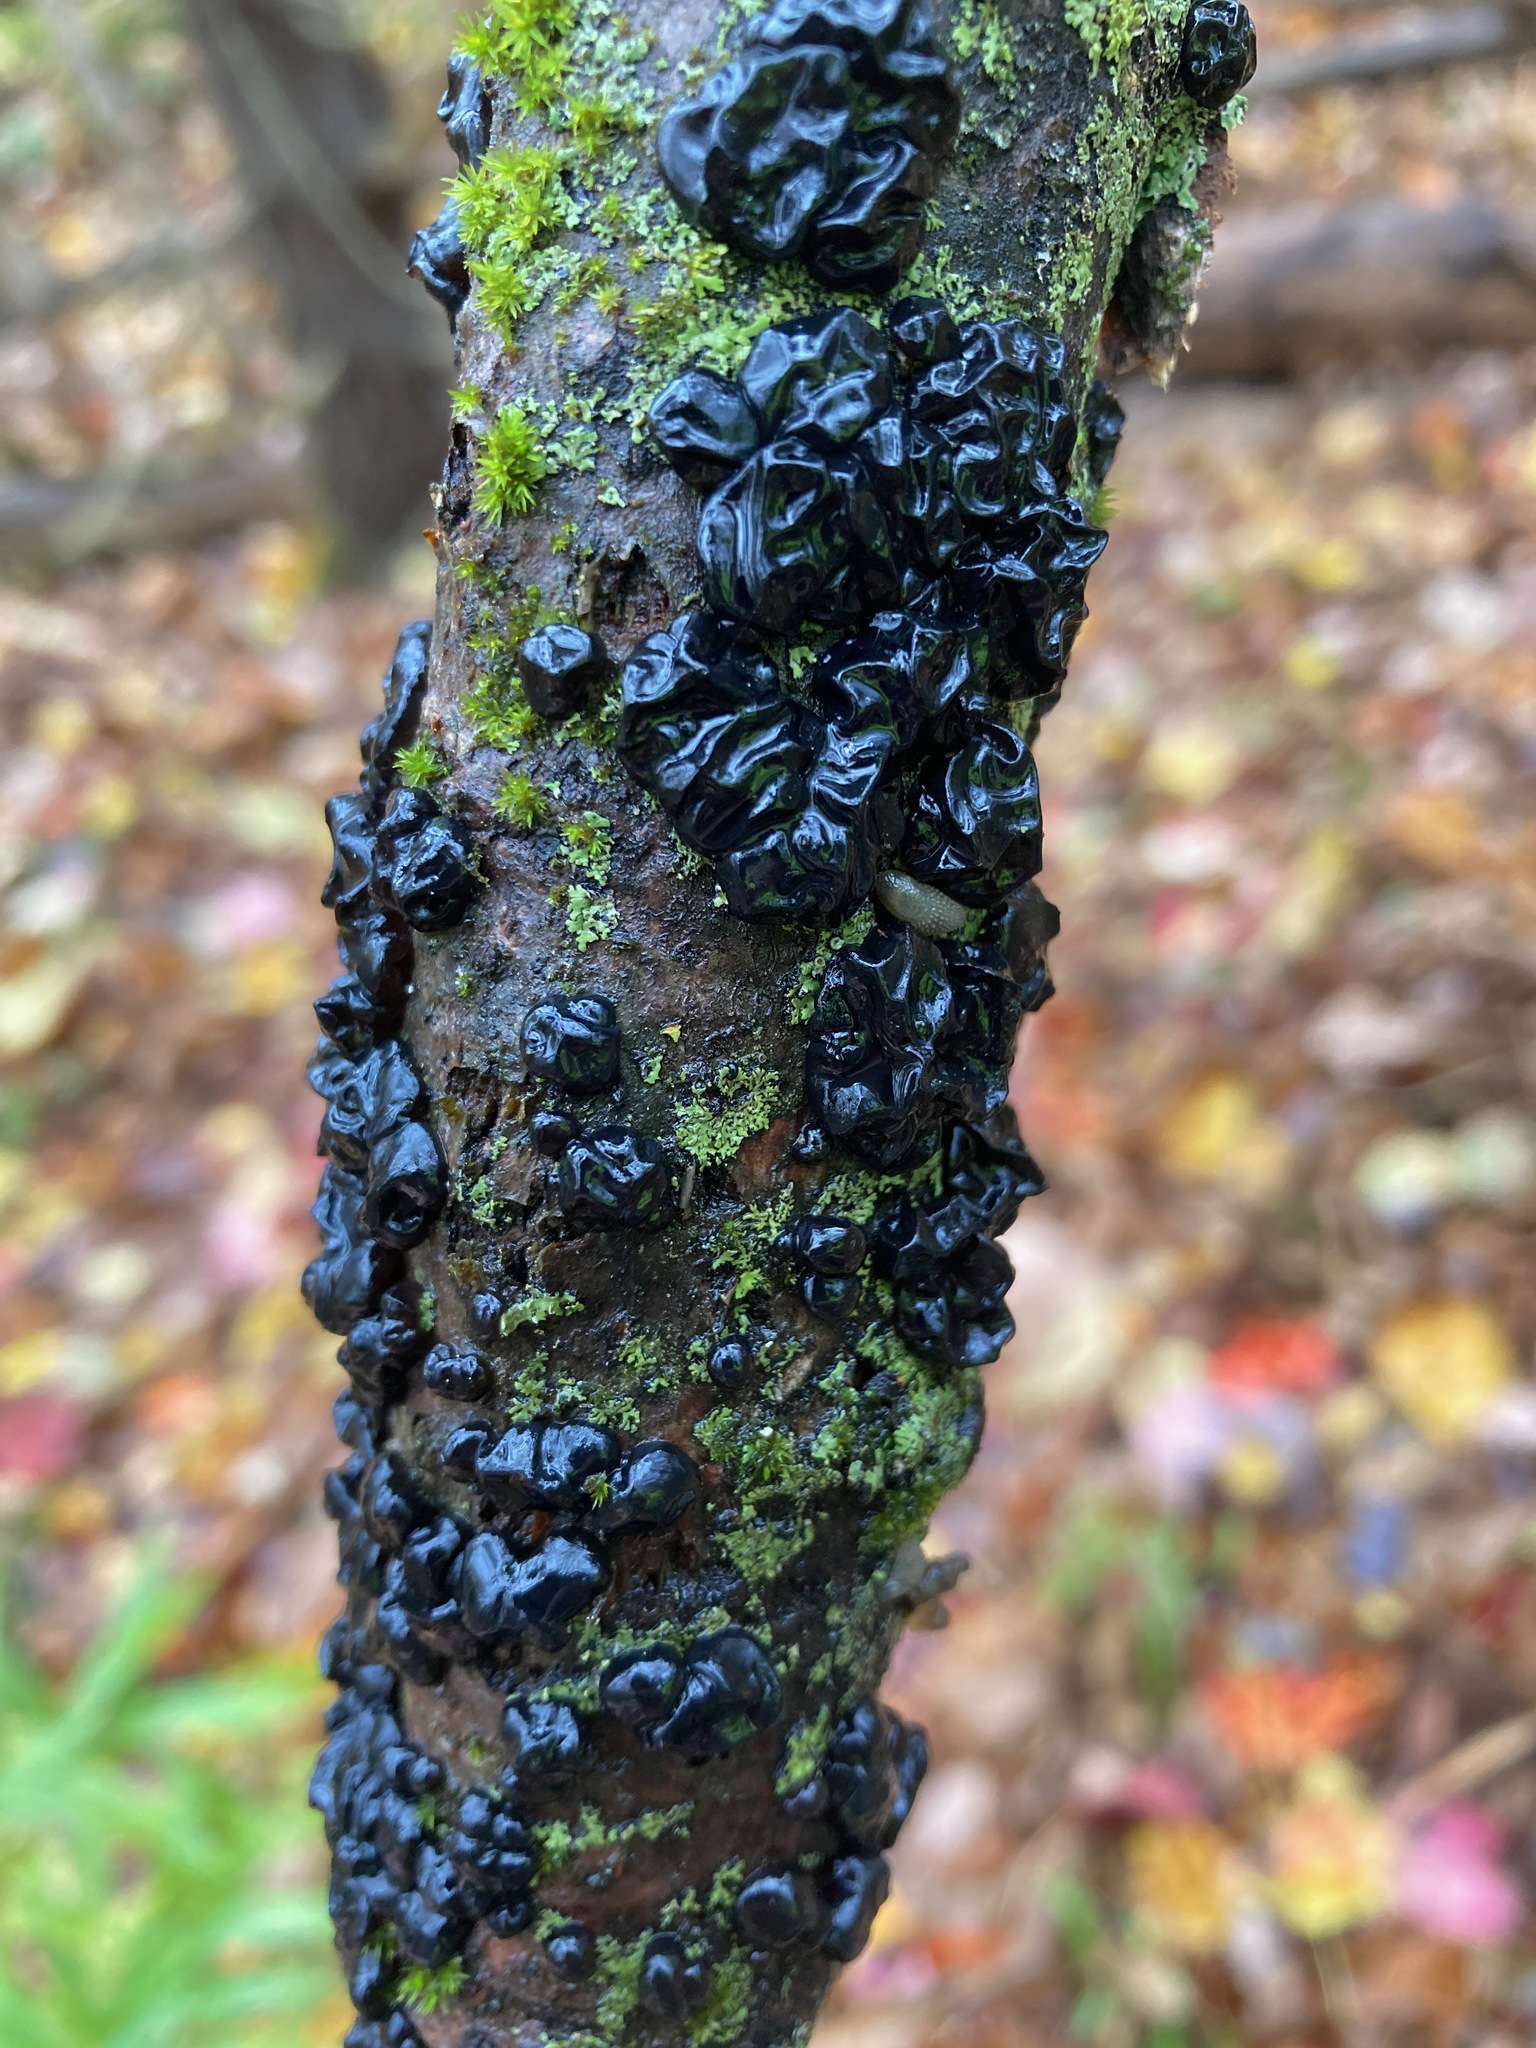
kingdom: Fungi
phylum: Basidiomycota
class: Agaricomycetes
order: Auriculariales
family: Auriculariaceae
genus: Exidia
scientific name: Exidia glandulosa
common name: Witches' butter
